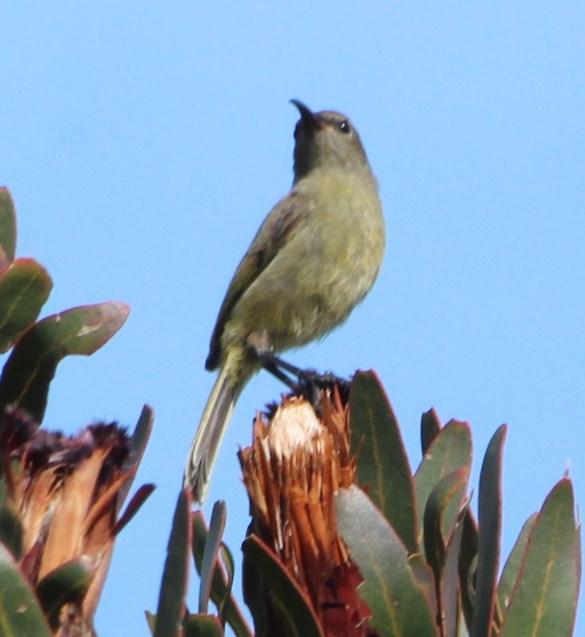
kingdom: Animalia
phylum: Chordata
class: Aves
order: Passeriformes
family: Nectariniidae
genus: Anthobaphes
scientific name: Anthobaphes violacea
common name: Orange-breasted sunbird
